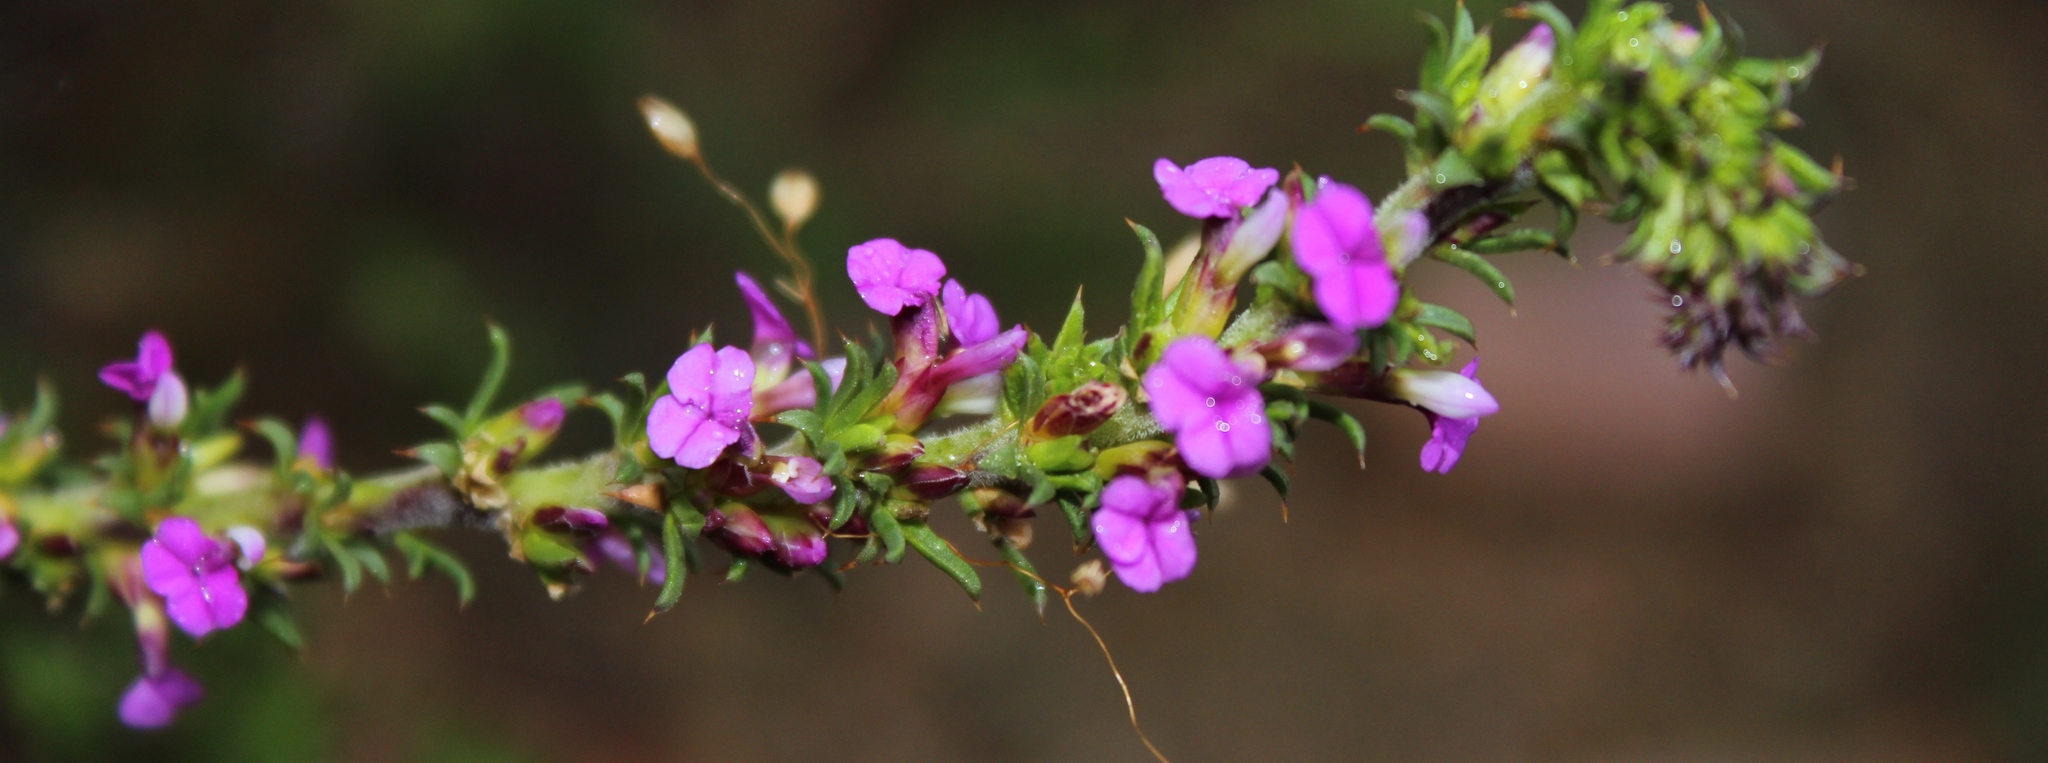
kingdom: Plantae
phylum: Tracheophyta
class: Magnoliopsida
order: Fabales
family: Polygalaceae
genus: Muraltia
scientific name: Muraltia heisteria
